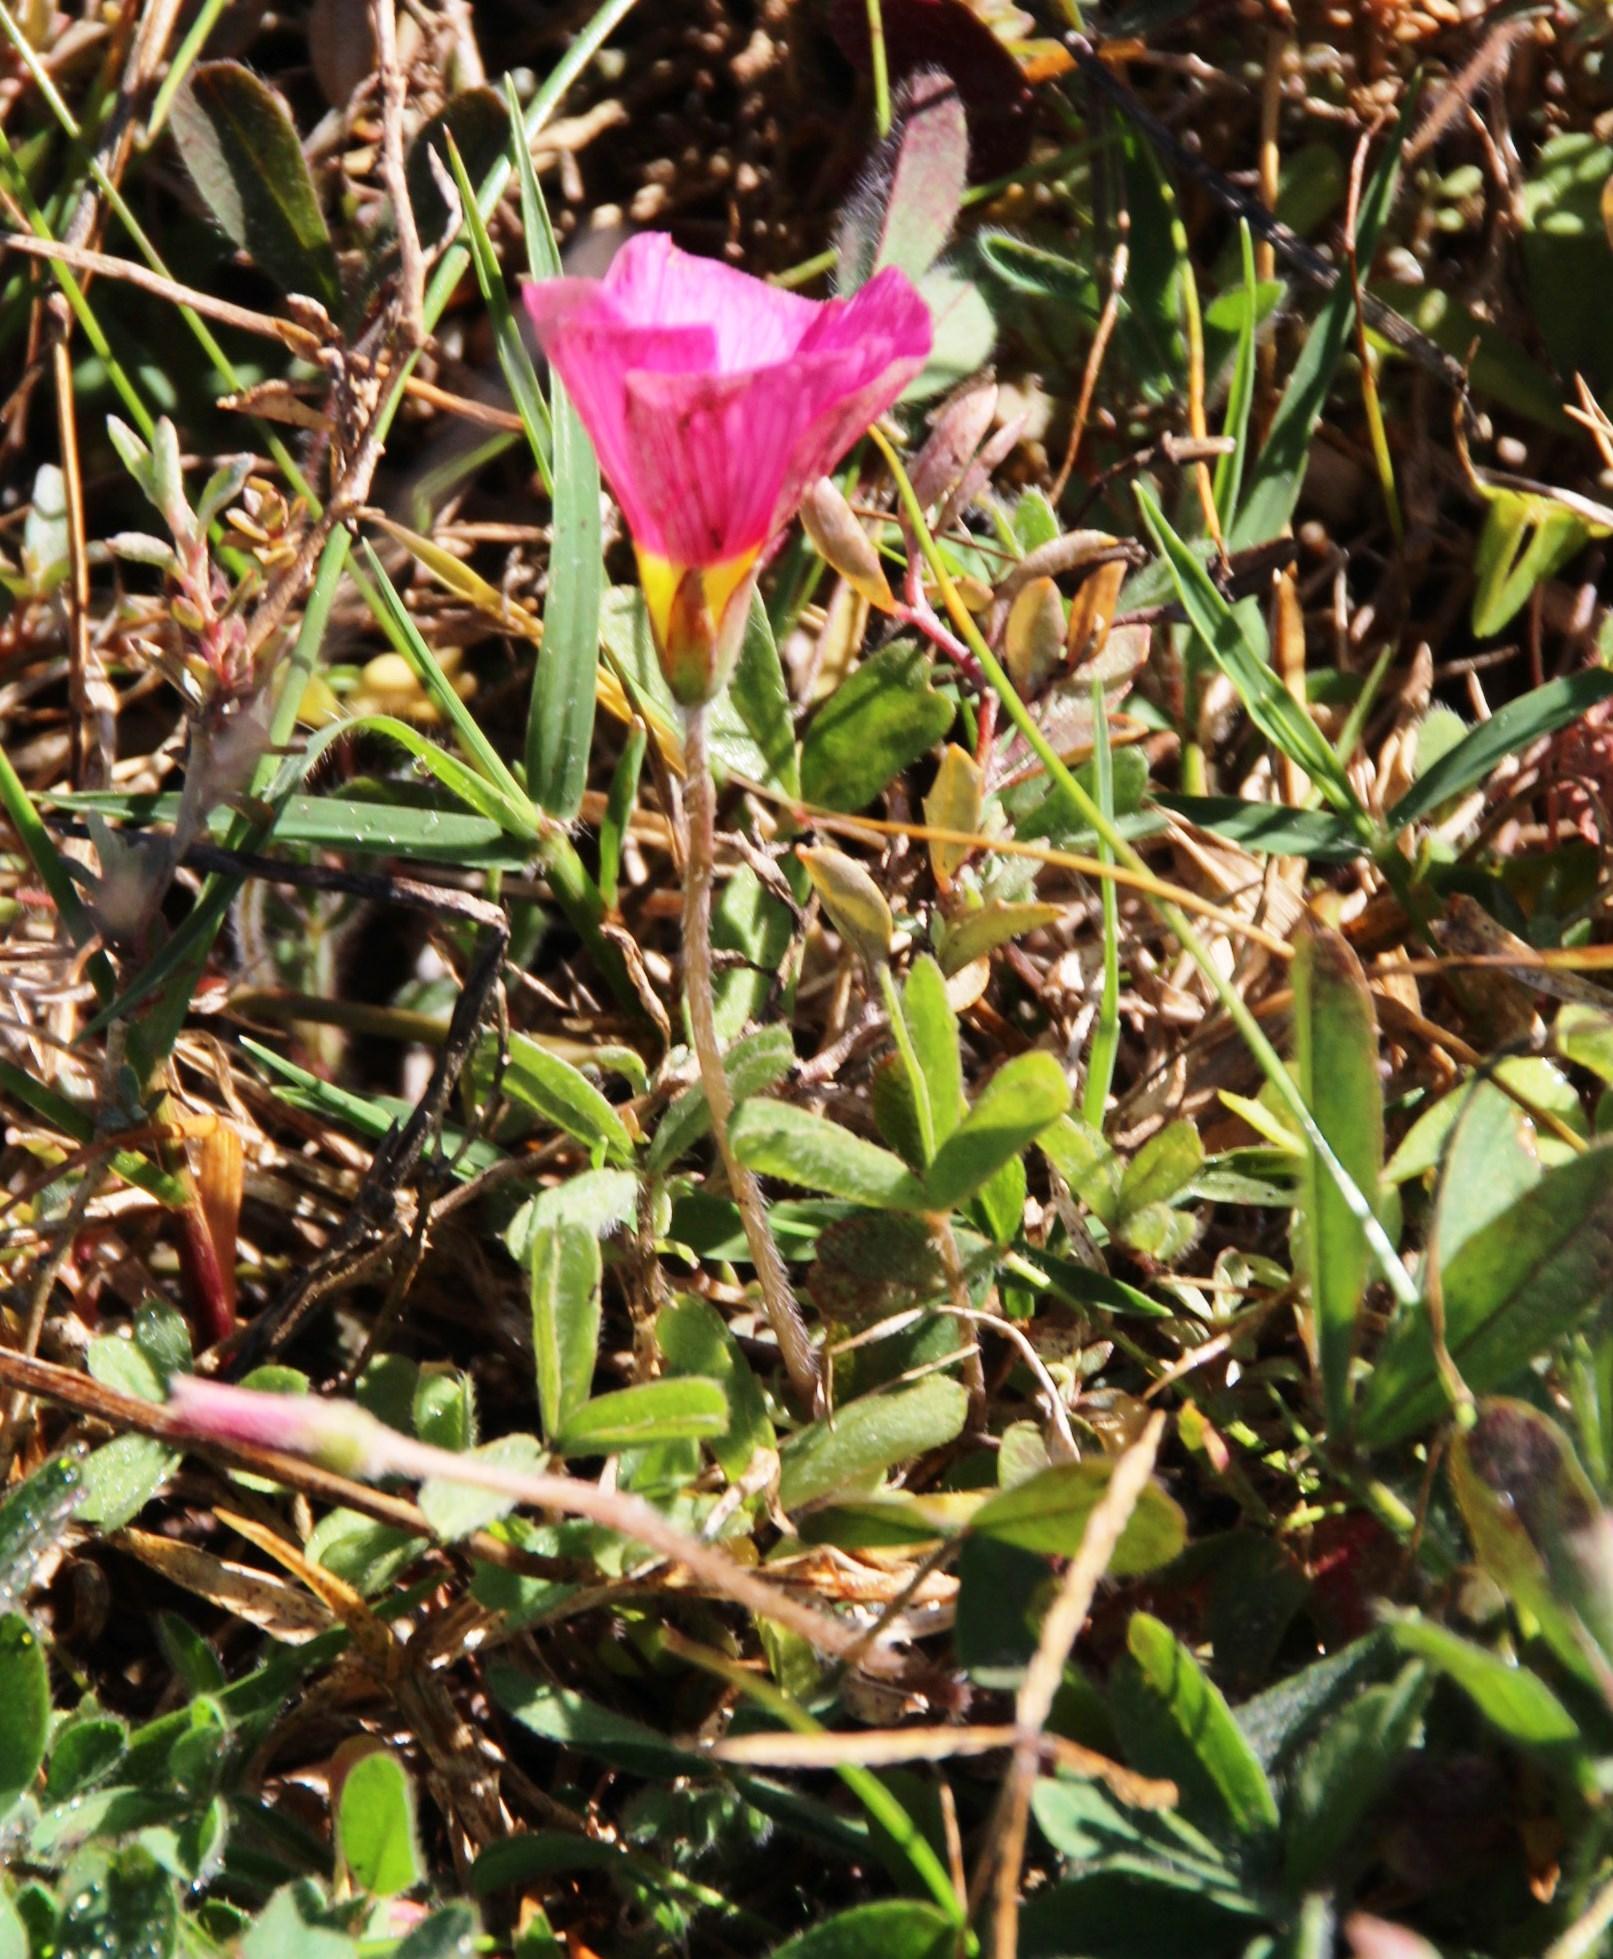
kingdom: Plantae
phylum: Tracheophyta
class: Magnoliopsida
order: Oxalidales
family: Oxalidaceae
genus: Oxalis
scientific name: Oxalis obtusa
